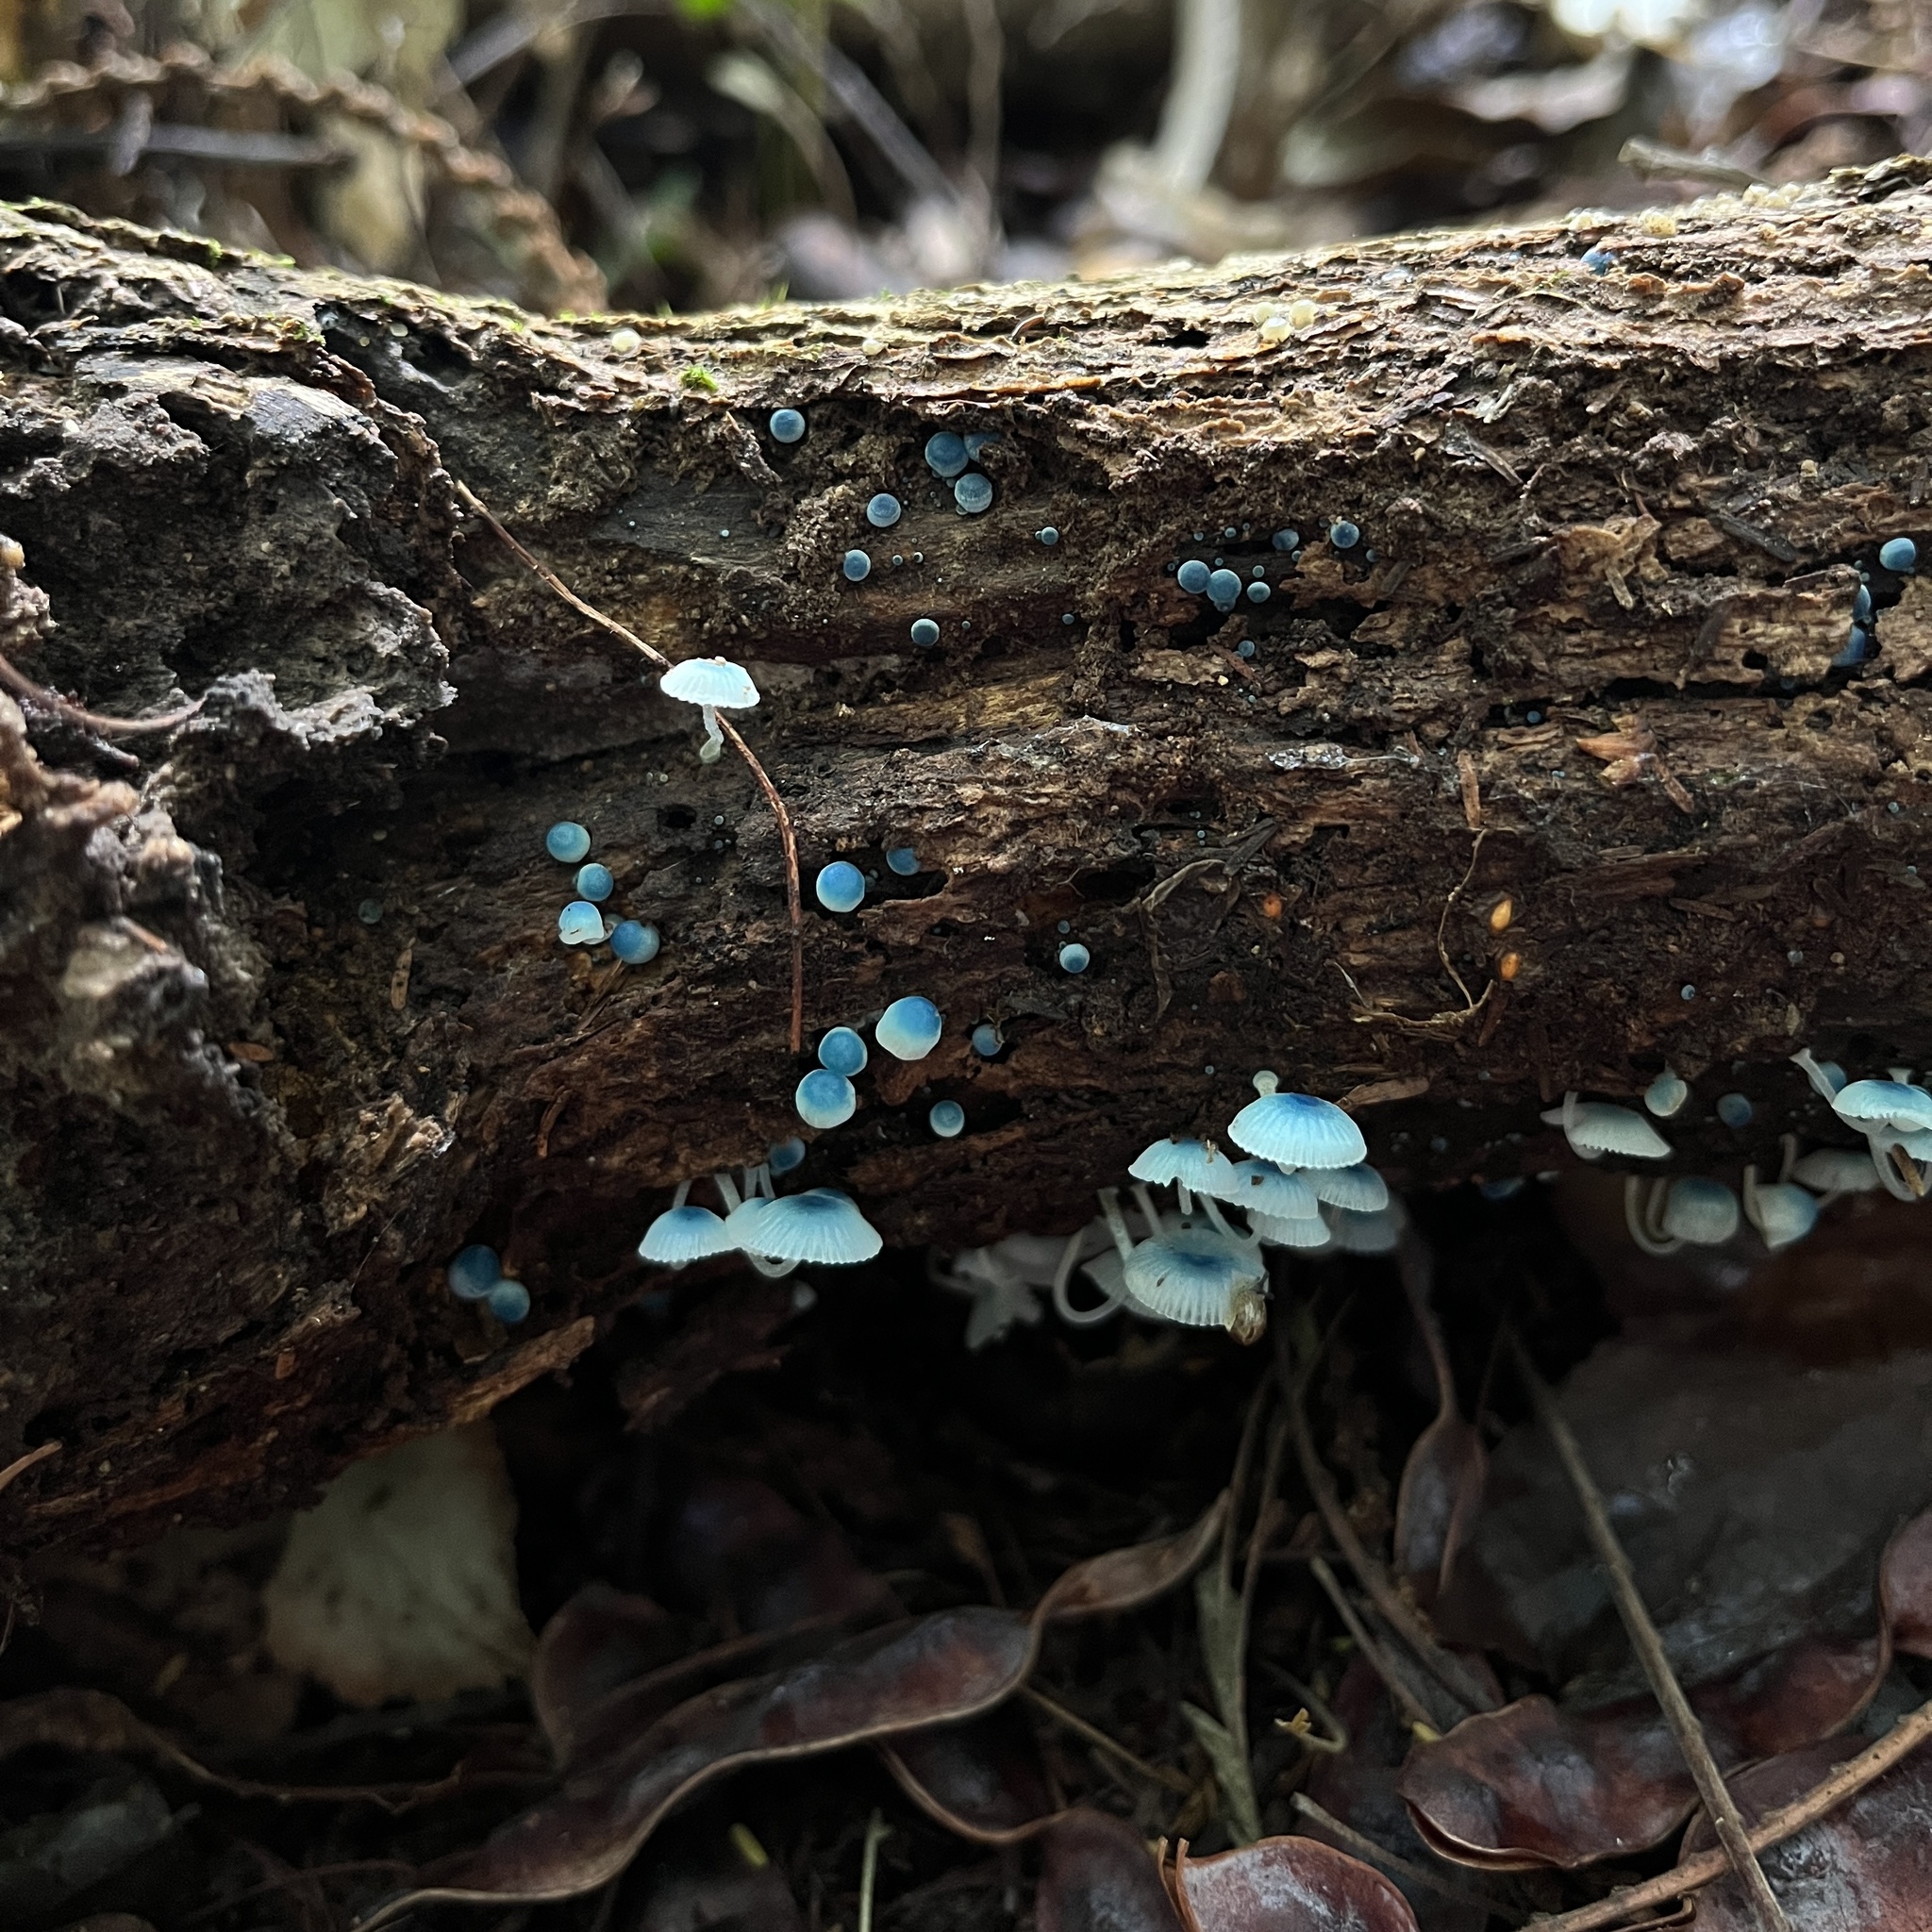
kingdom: Fungi
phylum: Basidiomycota
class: Agaricomycetes
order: Agaricales
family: Mycenaceae
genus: Mycena
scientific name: Mycena cyanocephala
